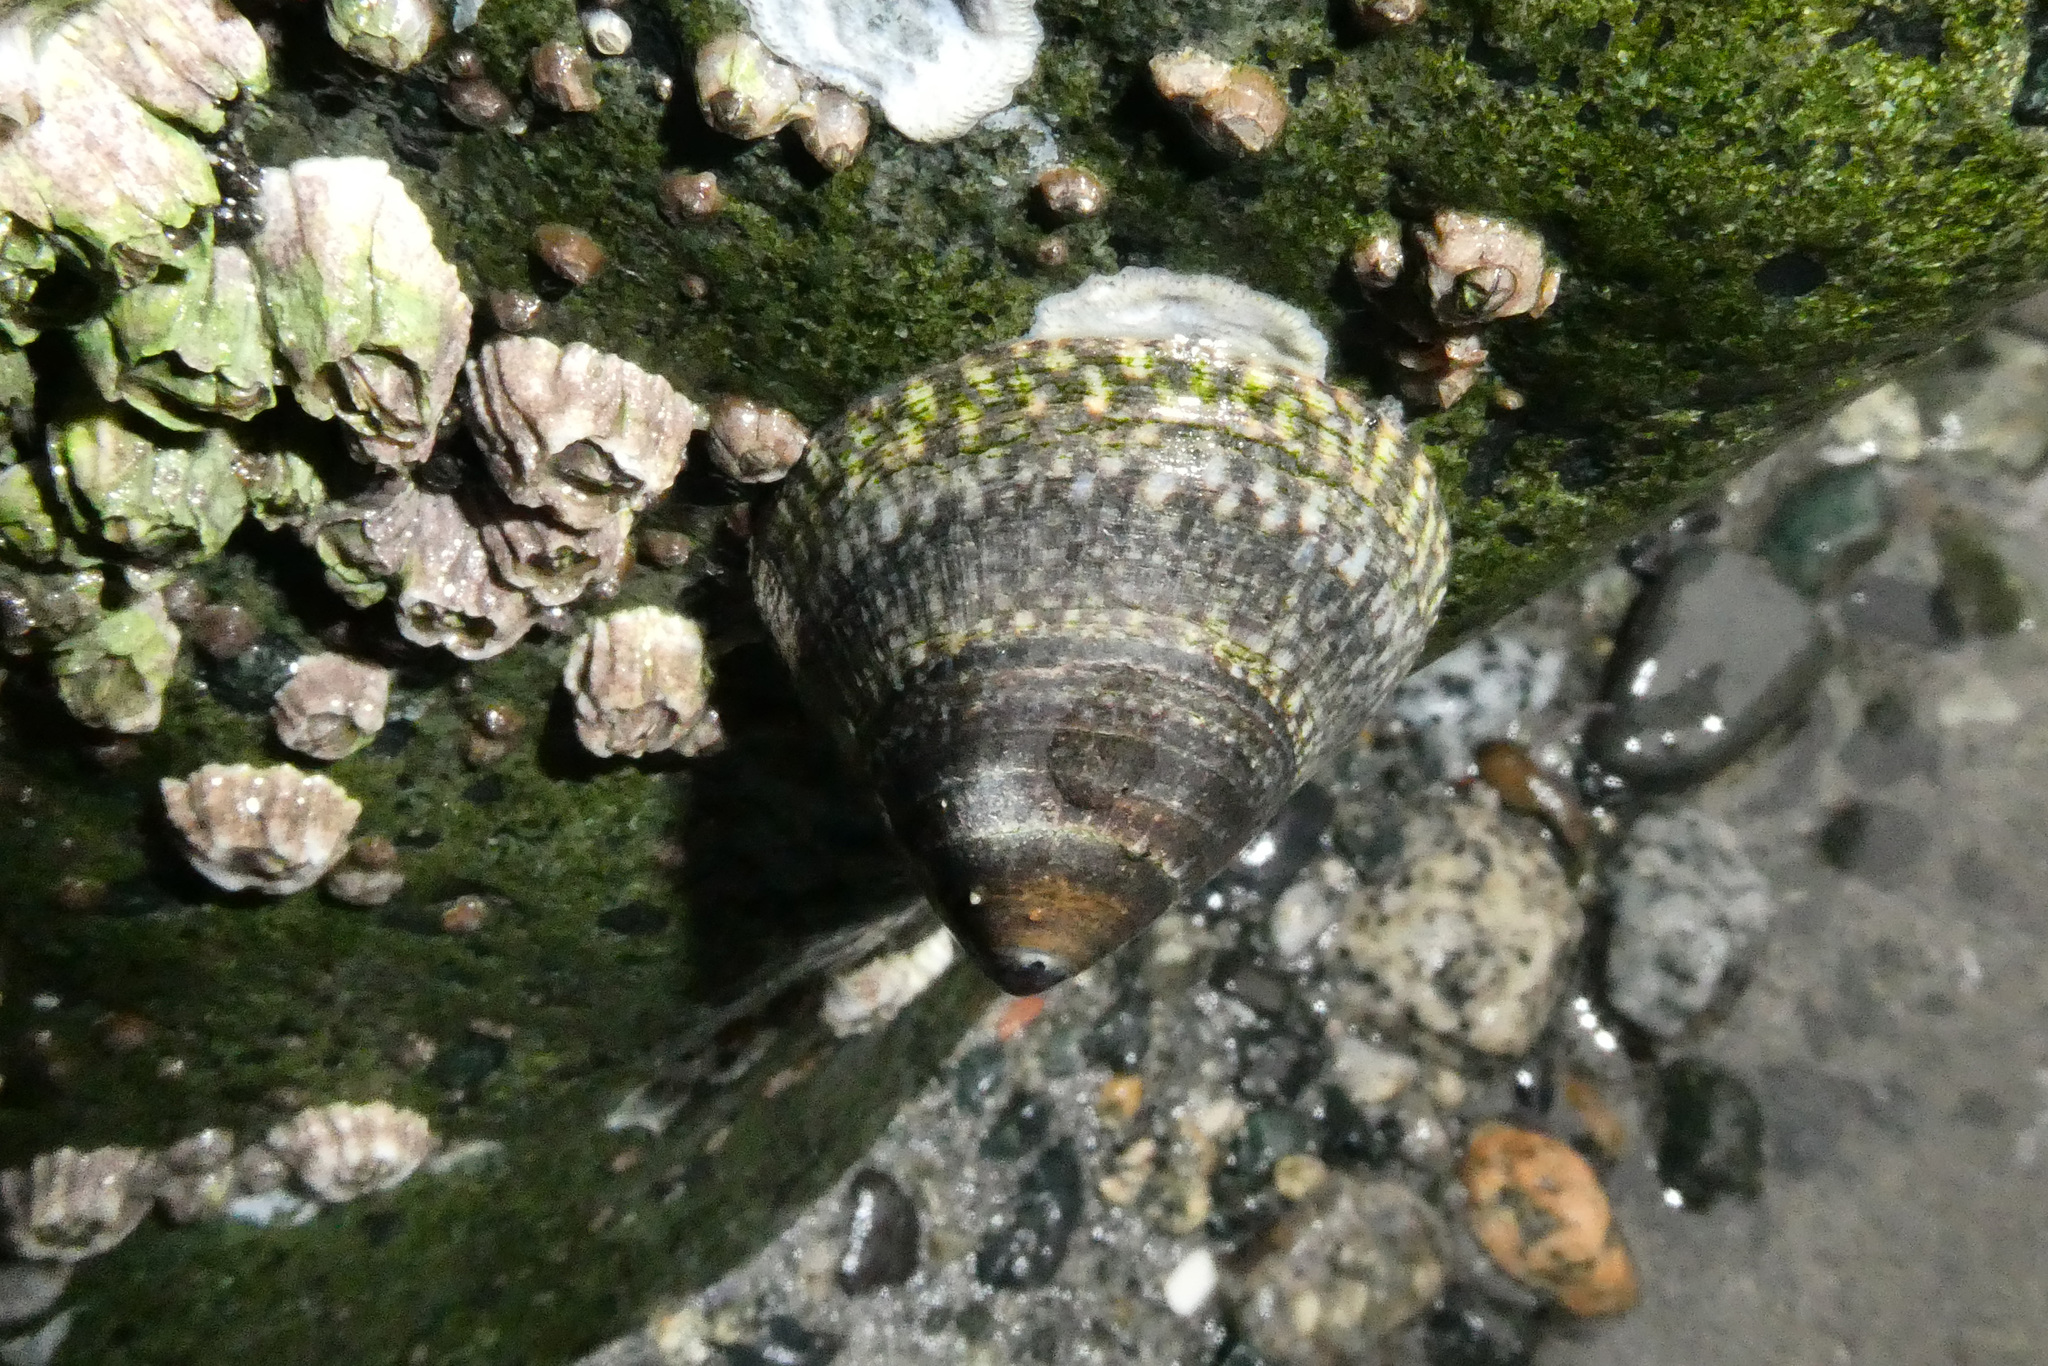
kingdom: Animalia
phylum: Mollusca
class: Gastropoda
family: Lottiidae
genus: Lottia
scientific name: Lottia persona
